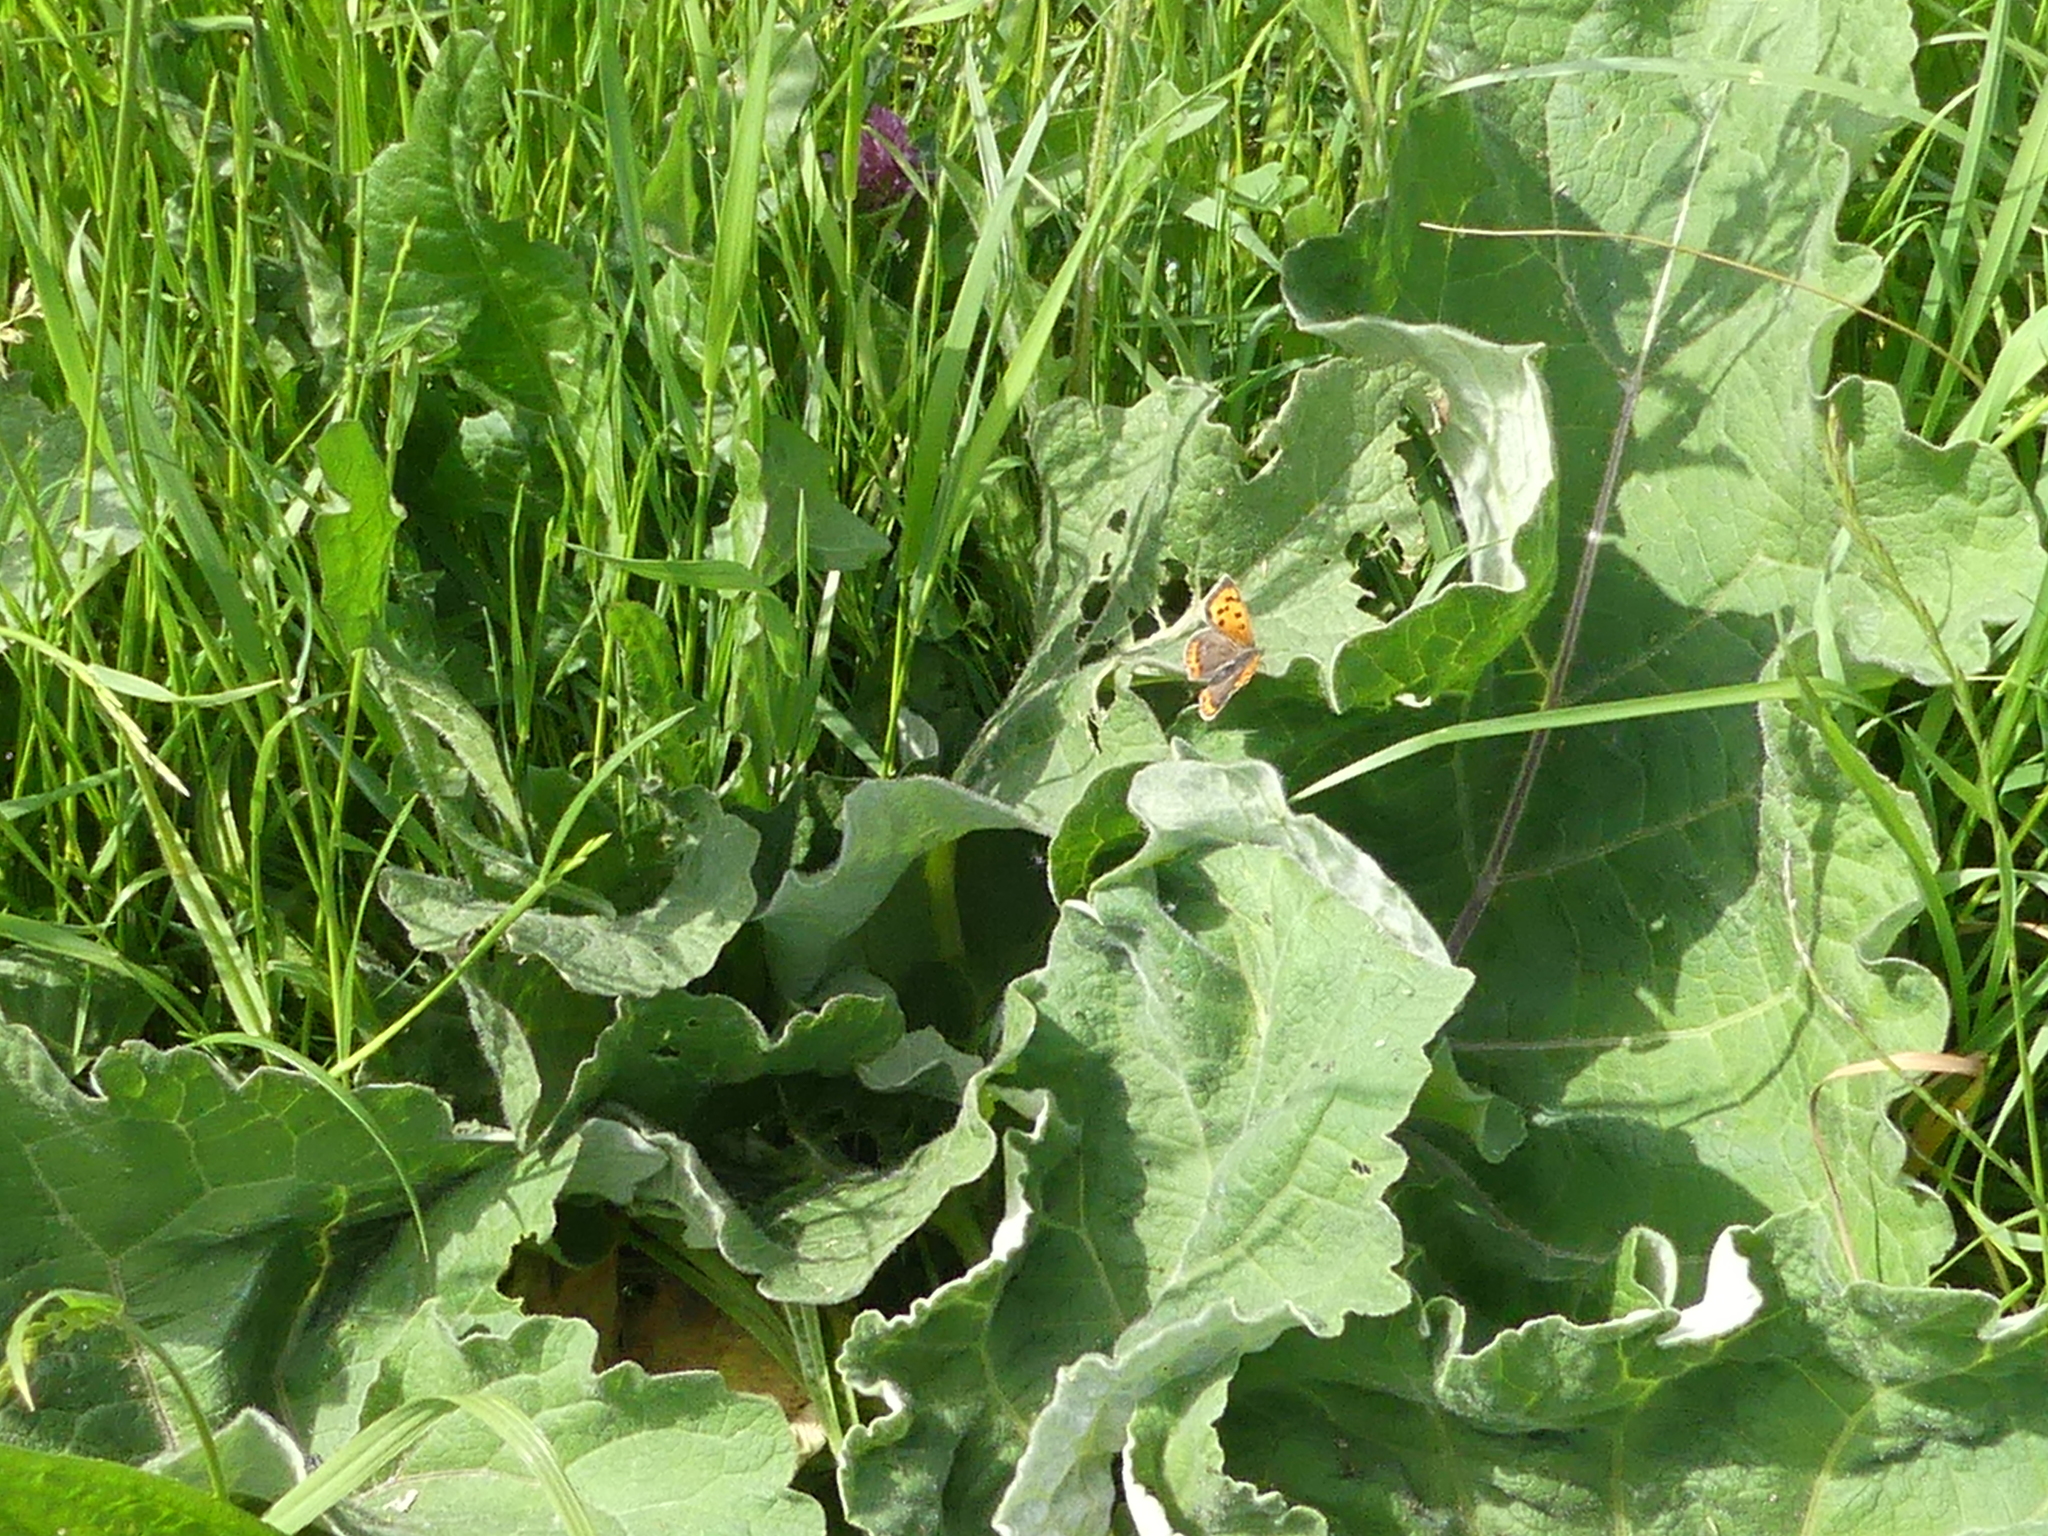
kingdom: Animalia
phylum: Arthropoda
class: Insecta
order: Lepidoptera
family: Lycaenidae
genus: Lycaena
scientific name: Lycaena phlaeas
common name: Small copper
